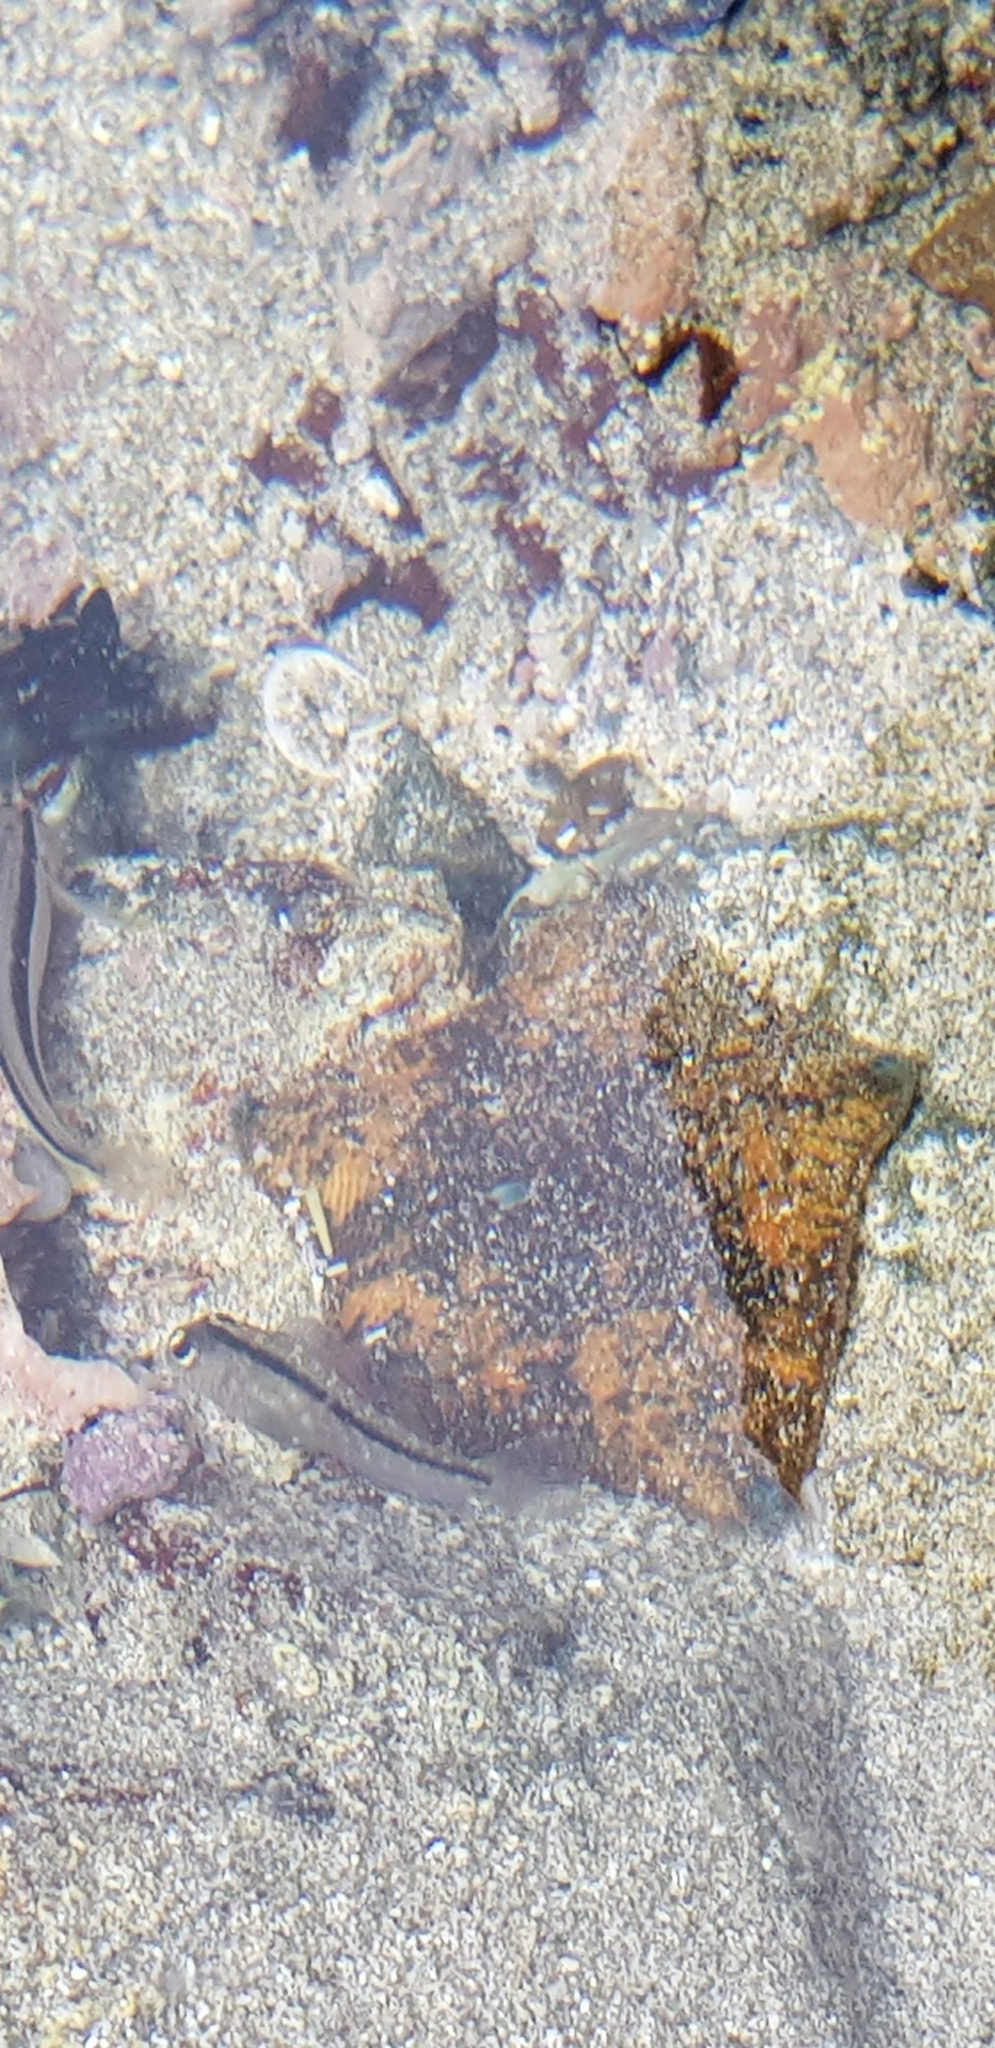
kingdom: Animalia
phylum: Echinodermata
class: Asteroidea
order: Valvatida
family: Asterinidae
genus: Patiriella
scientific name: Patiriella regularis
